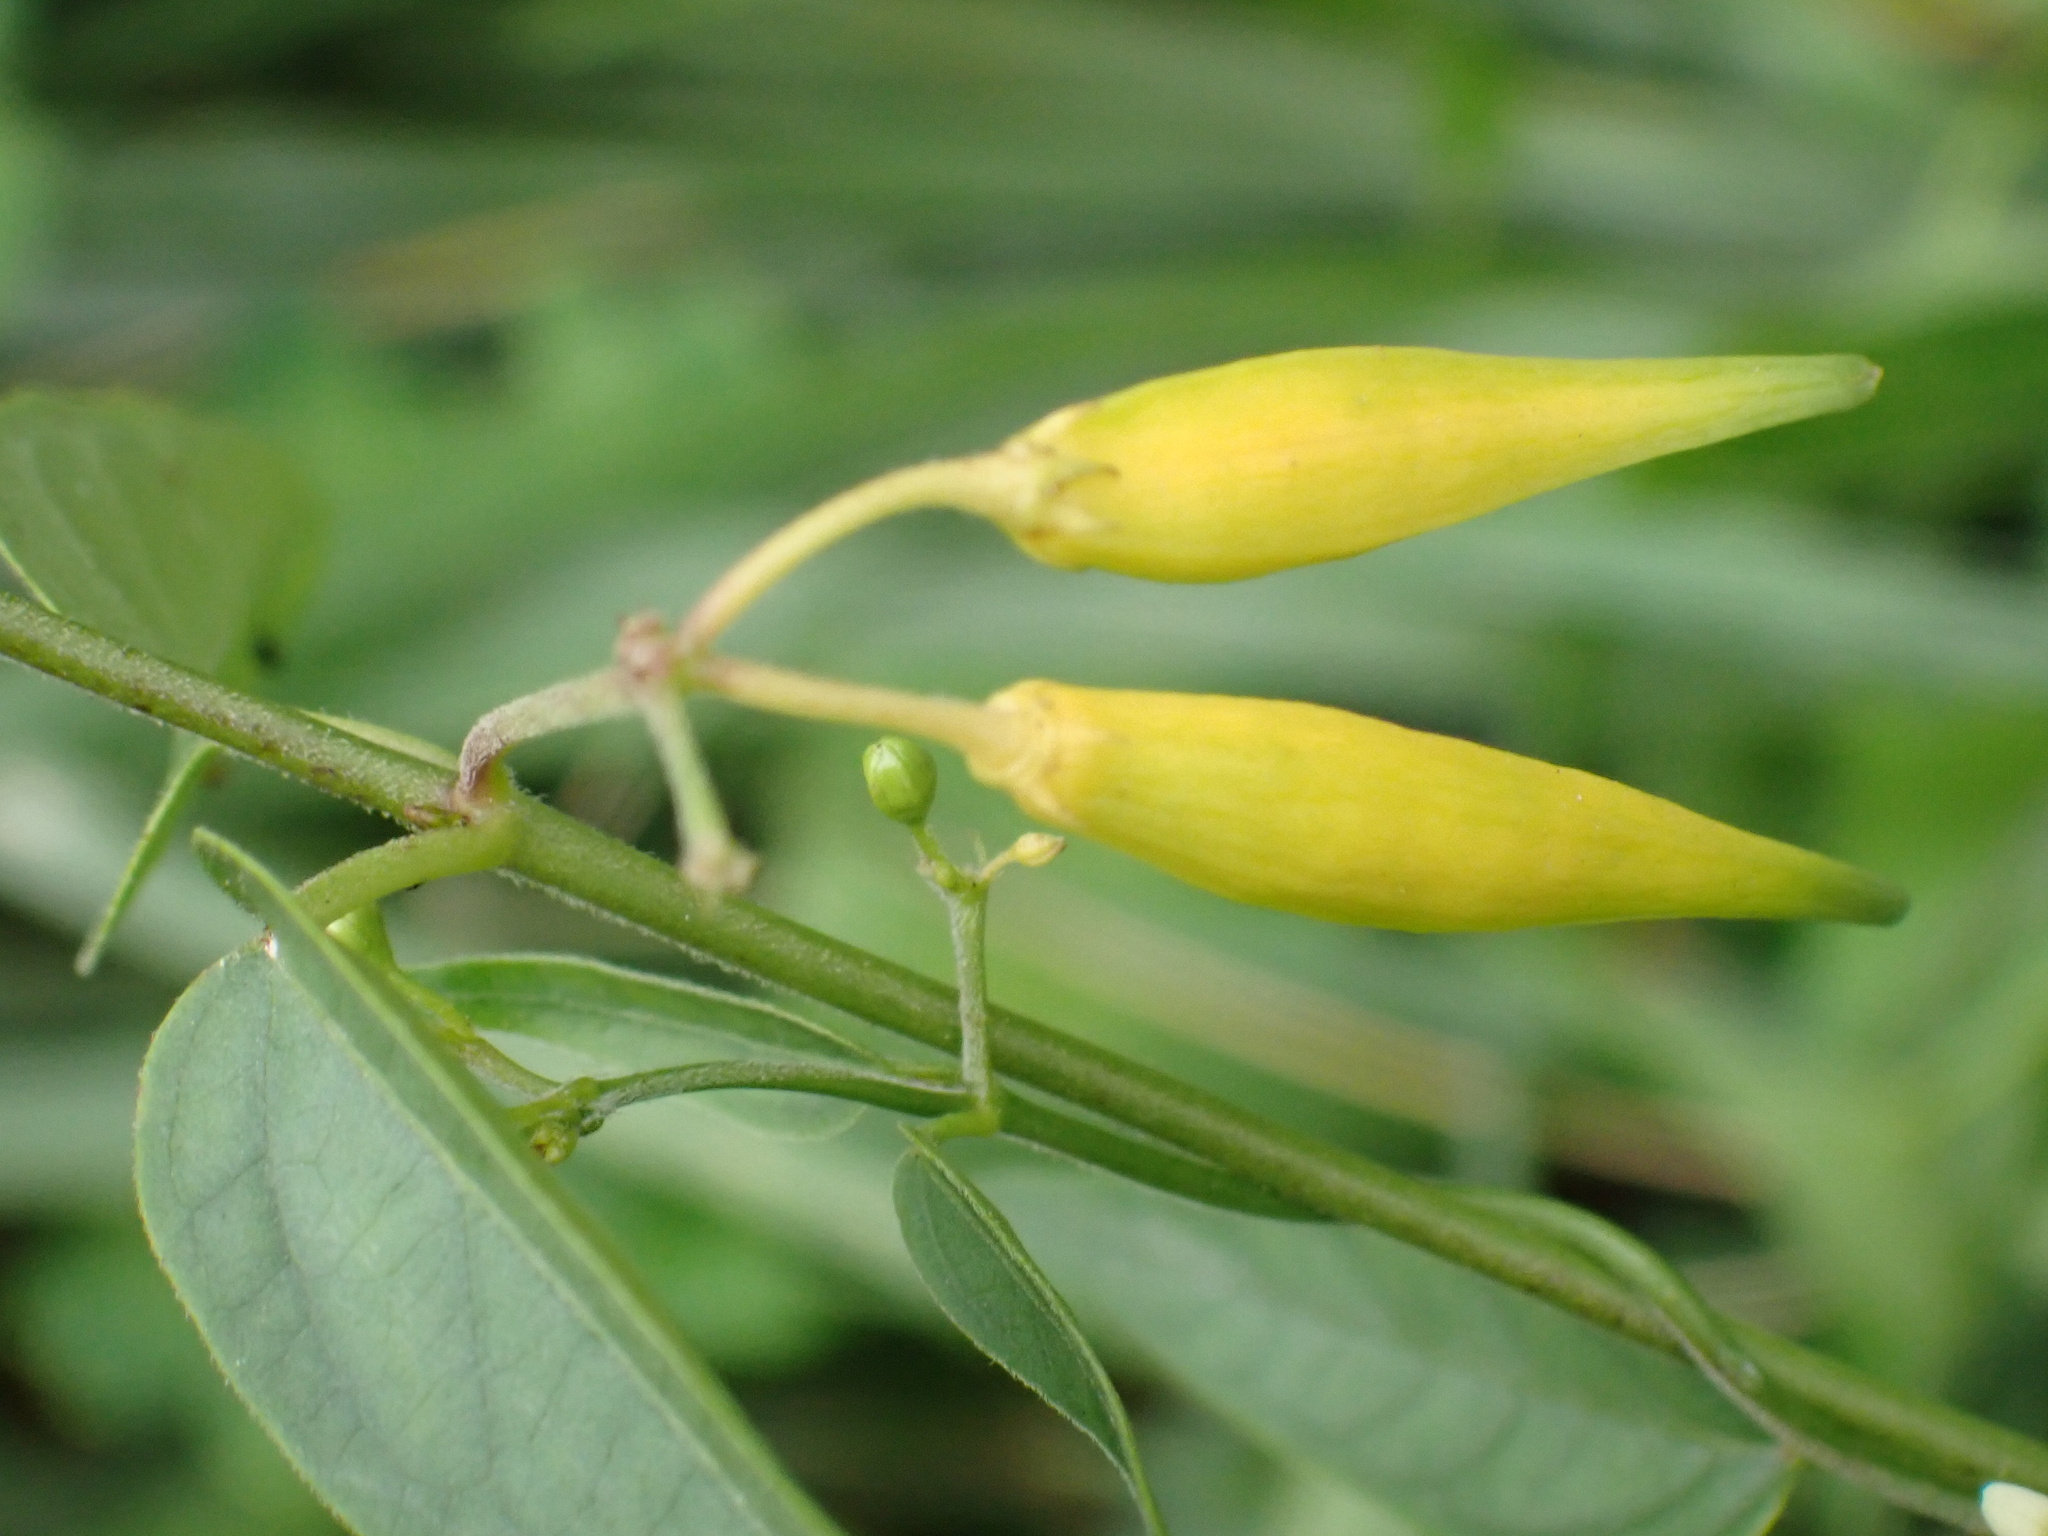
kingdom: Plantae
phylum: Tracheophyta
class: Magnoliopsida
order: Gentianales
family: Apocynaceae
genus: Vincetoxicum
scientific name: Vincetoxicum hirundinaria
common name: White swallowwort
